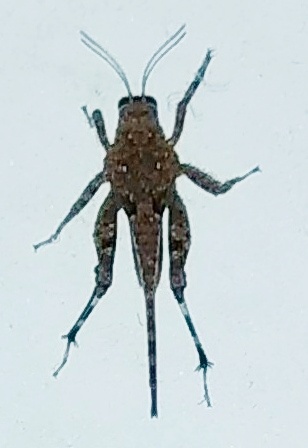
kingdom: Animalia
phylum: Arthropoda
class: Insecta
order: Orthoptera
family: Tetrigidae
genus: Euparatettix
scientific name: Euparatettix nodulosus
